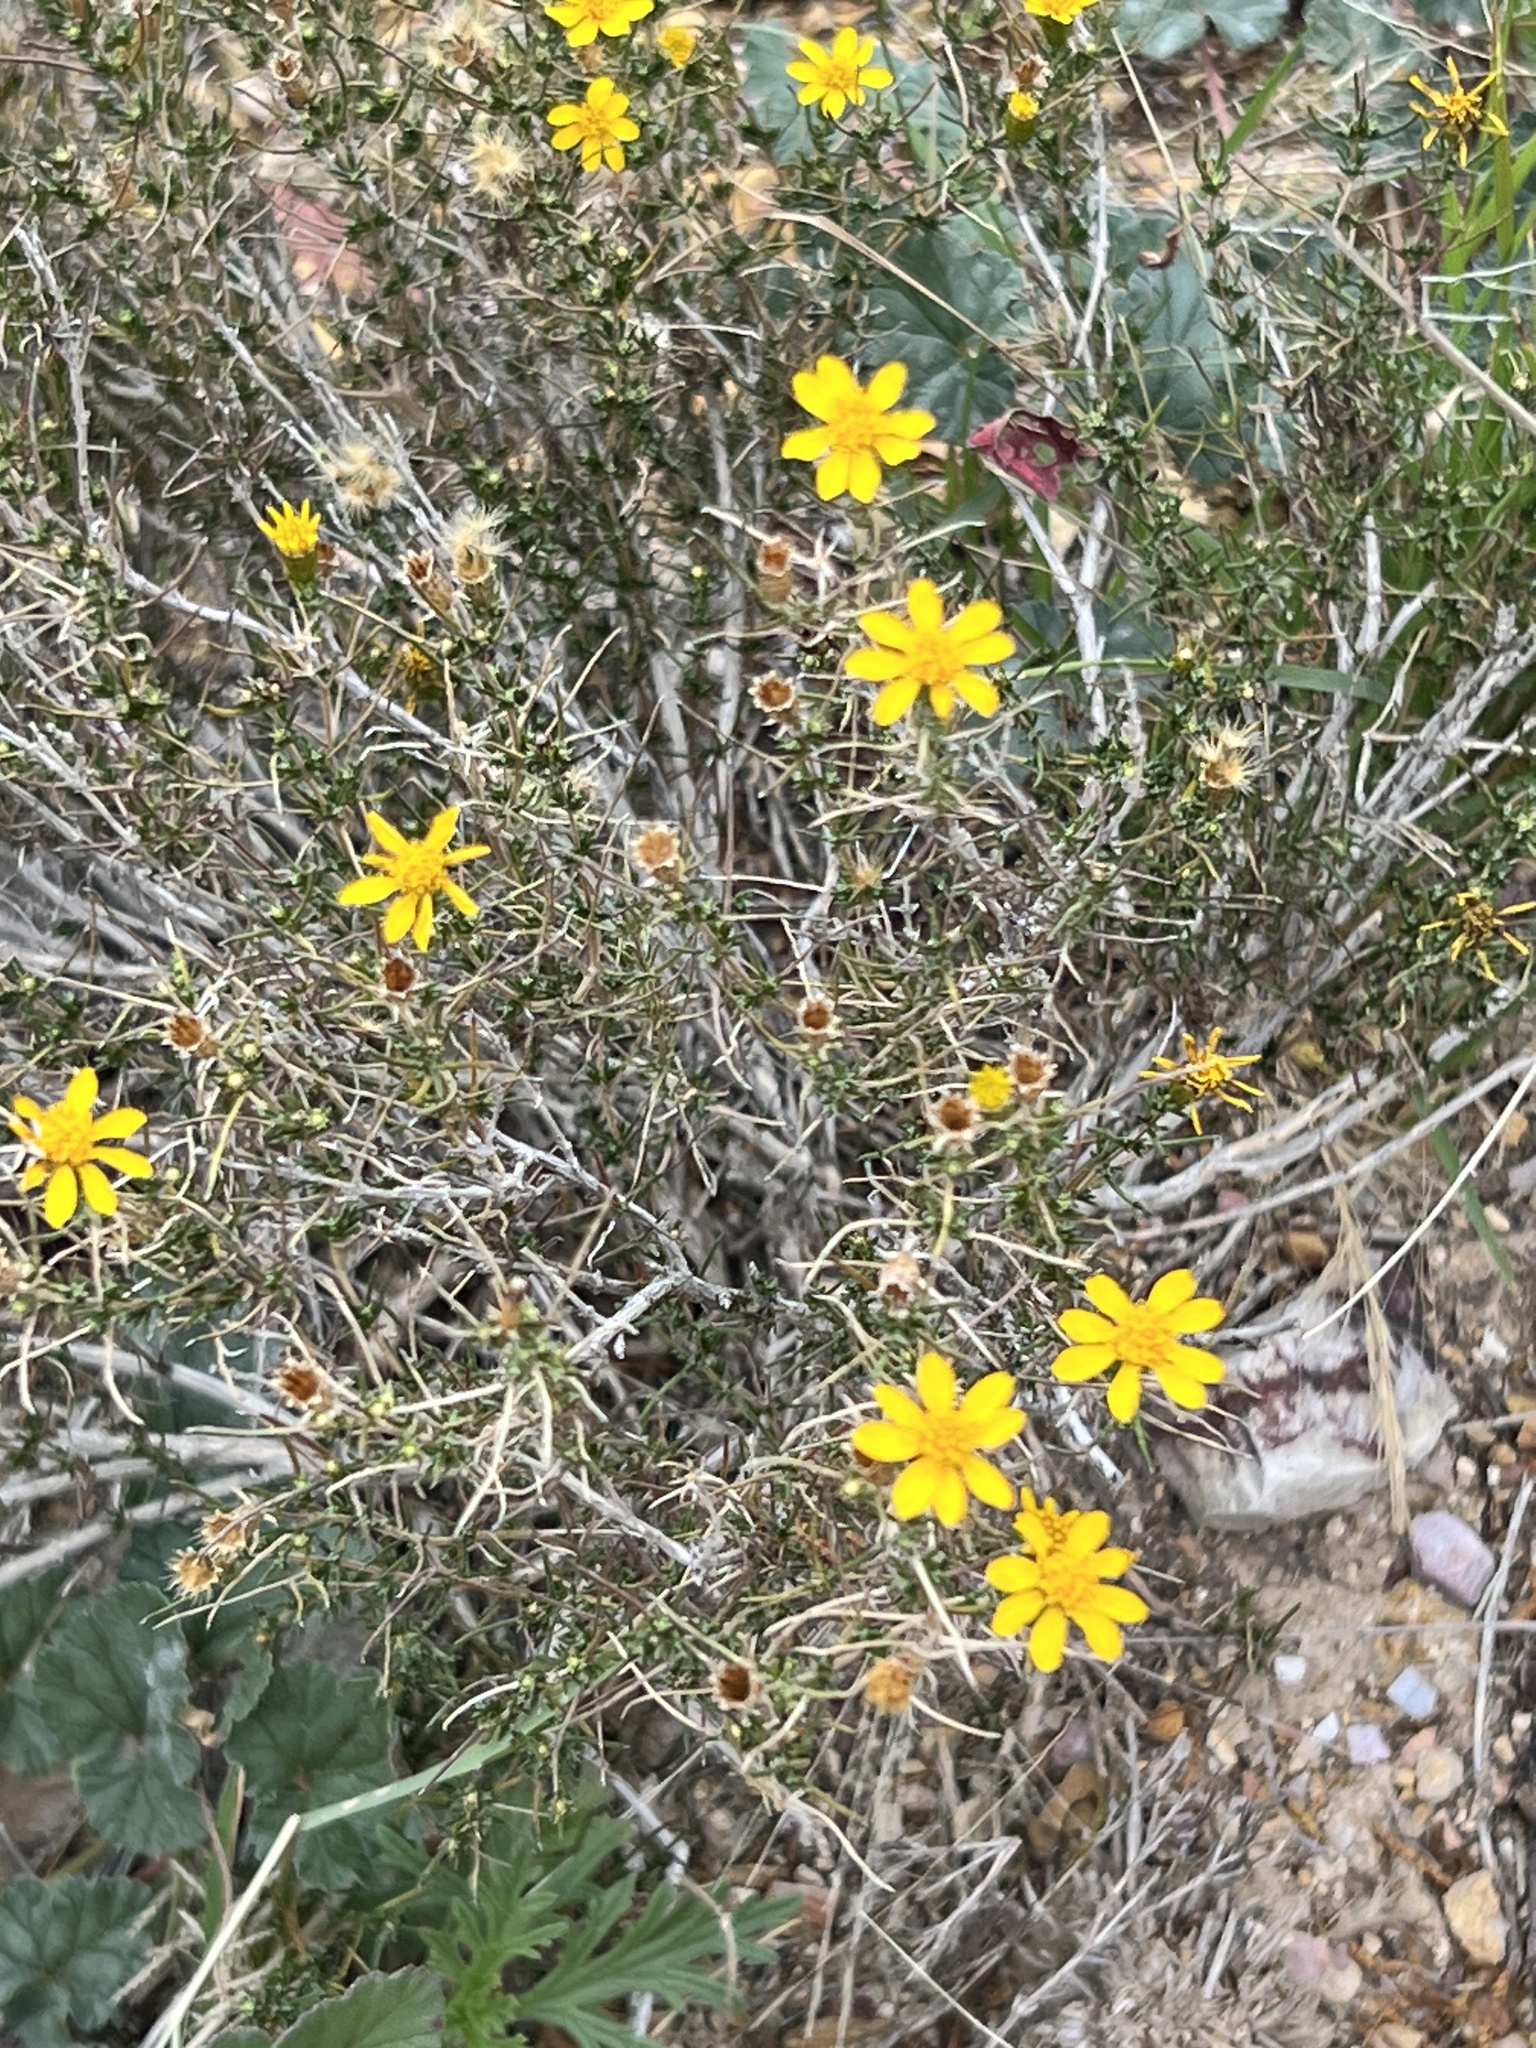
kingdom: Plantae
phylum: Tracheophyta
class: Magnoliopsida
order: Asterales
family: Asteraceae
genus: Thymophylla
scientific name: Thymophylla acerosa
